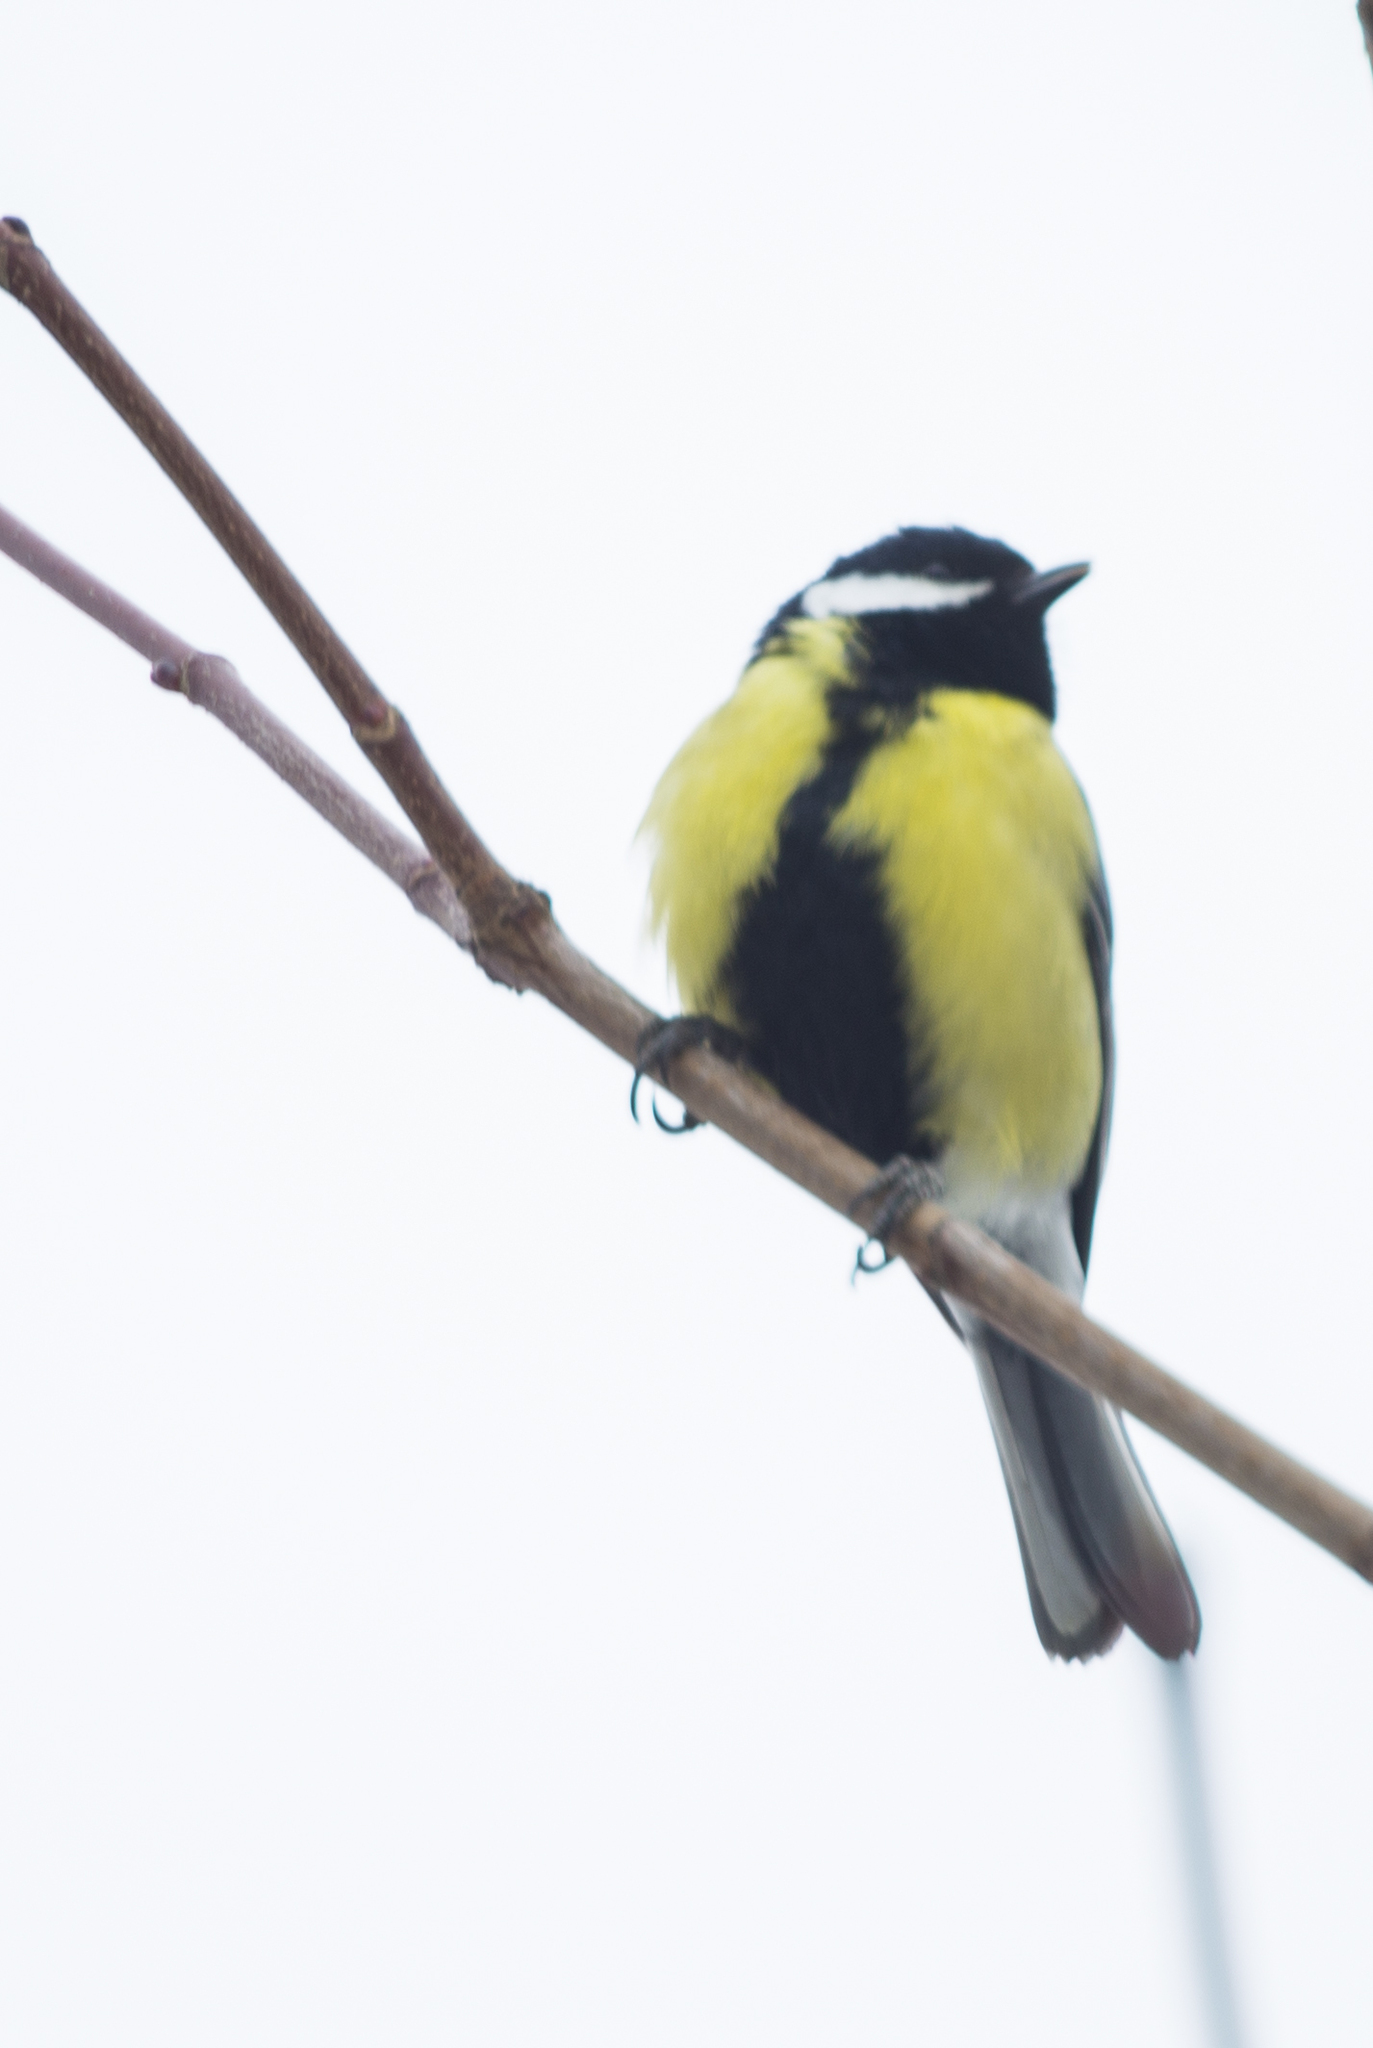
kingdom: Animalia
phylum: Chordata
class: Aves
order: Passeriformes
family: Paridae
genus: Parus
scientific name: Parus major
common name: Great tit
